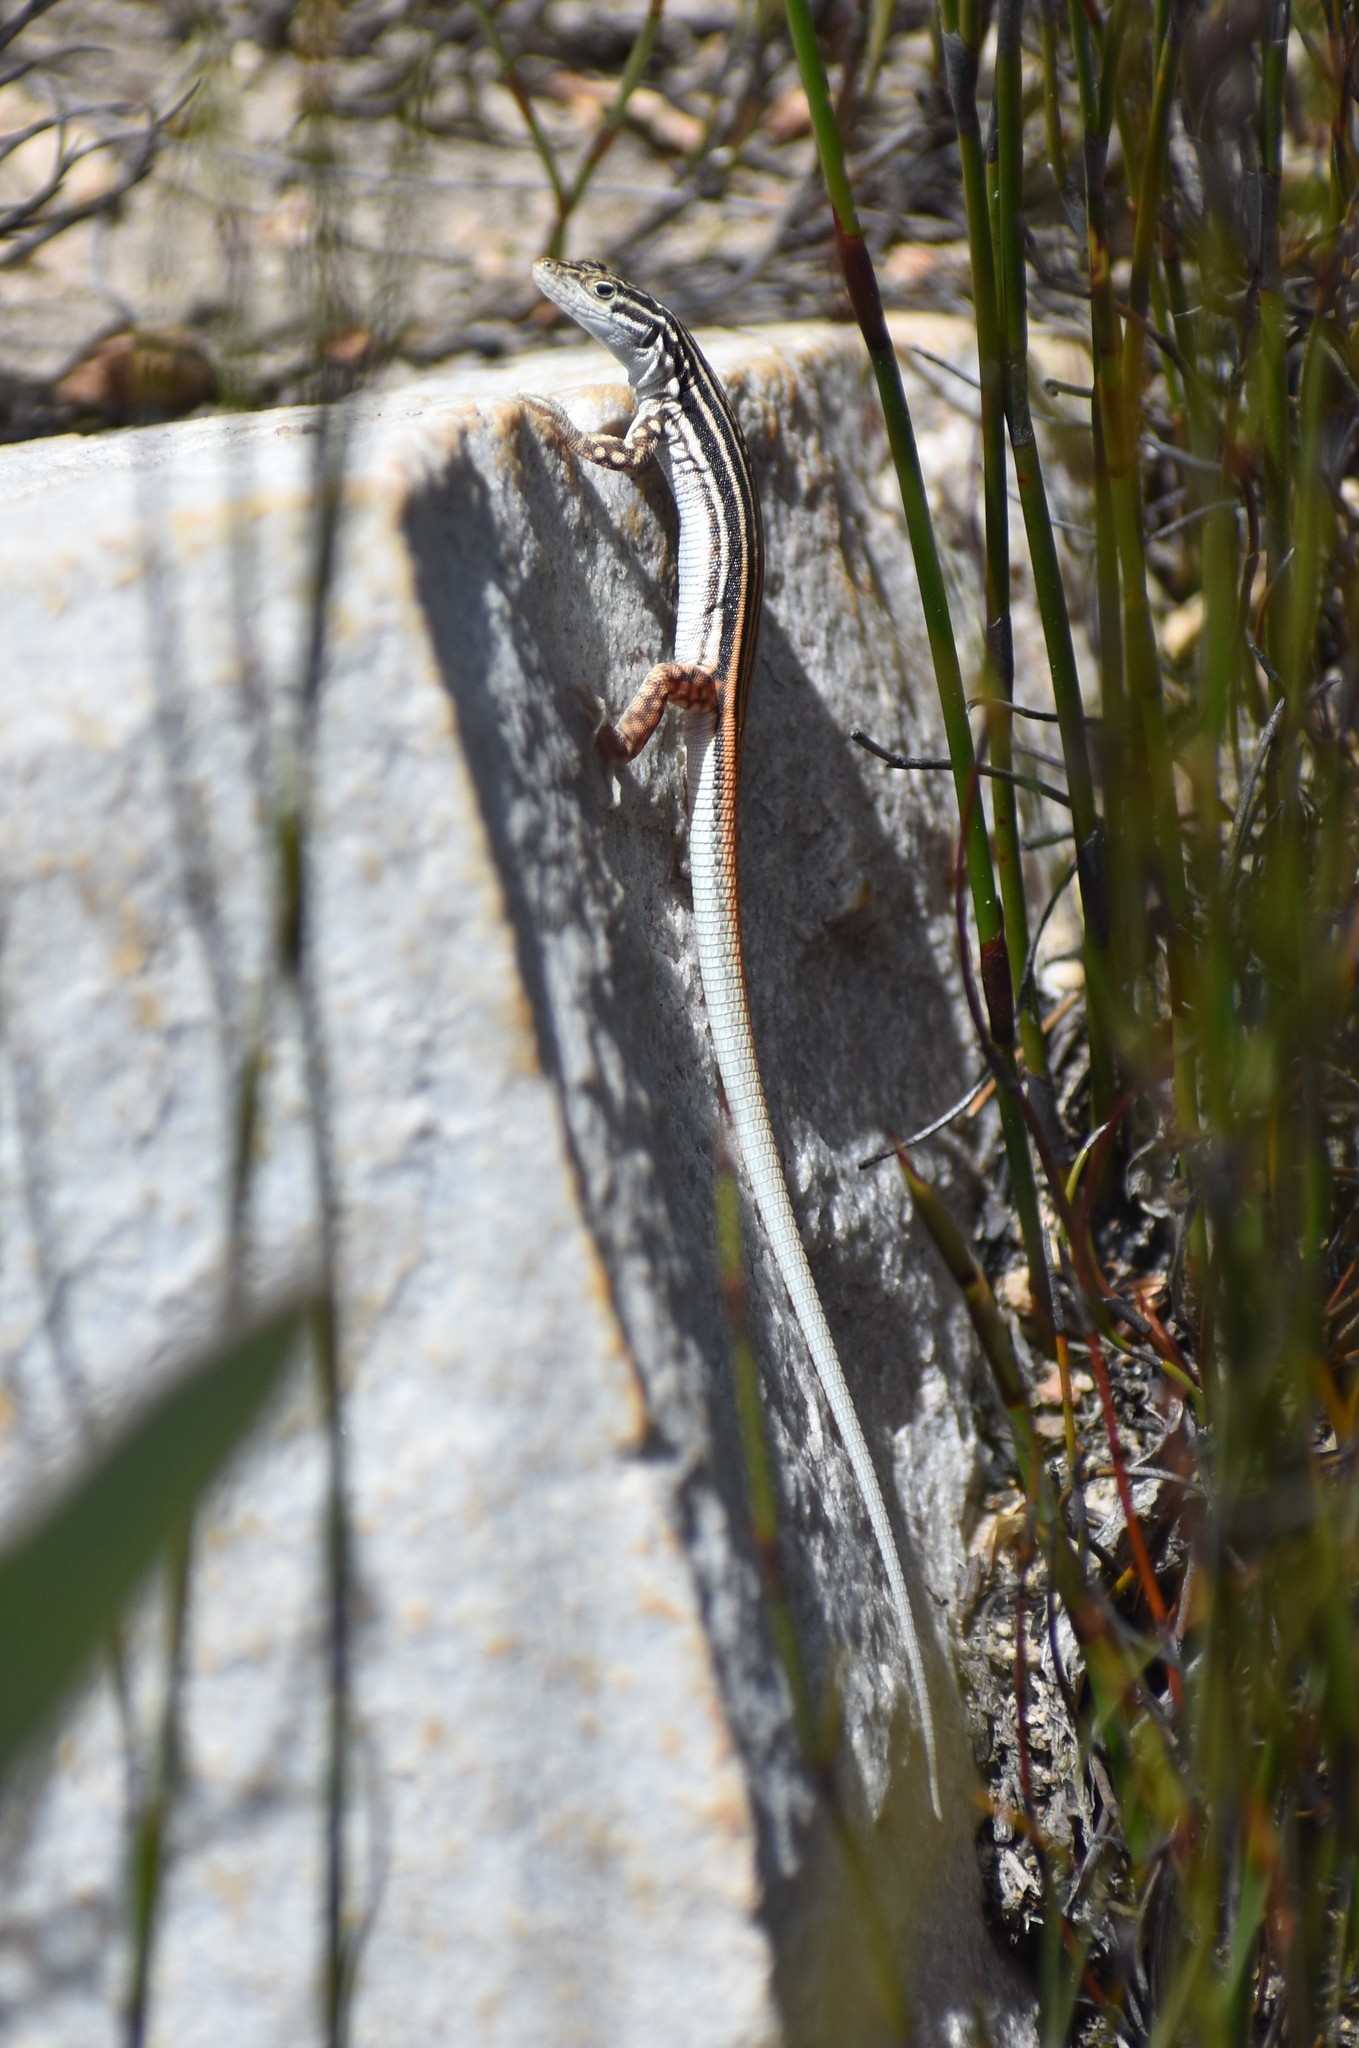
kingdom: Animalia
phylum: Chordata
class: Squamata
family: Lacertidae
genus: Pedioplanis
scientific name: Pedioplanis burchelli
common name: Burchell's sand lizard
